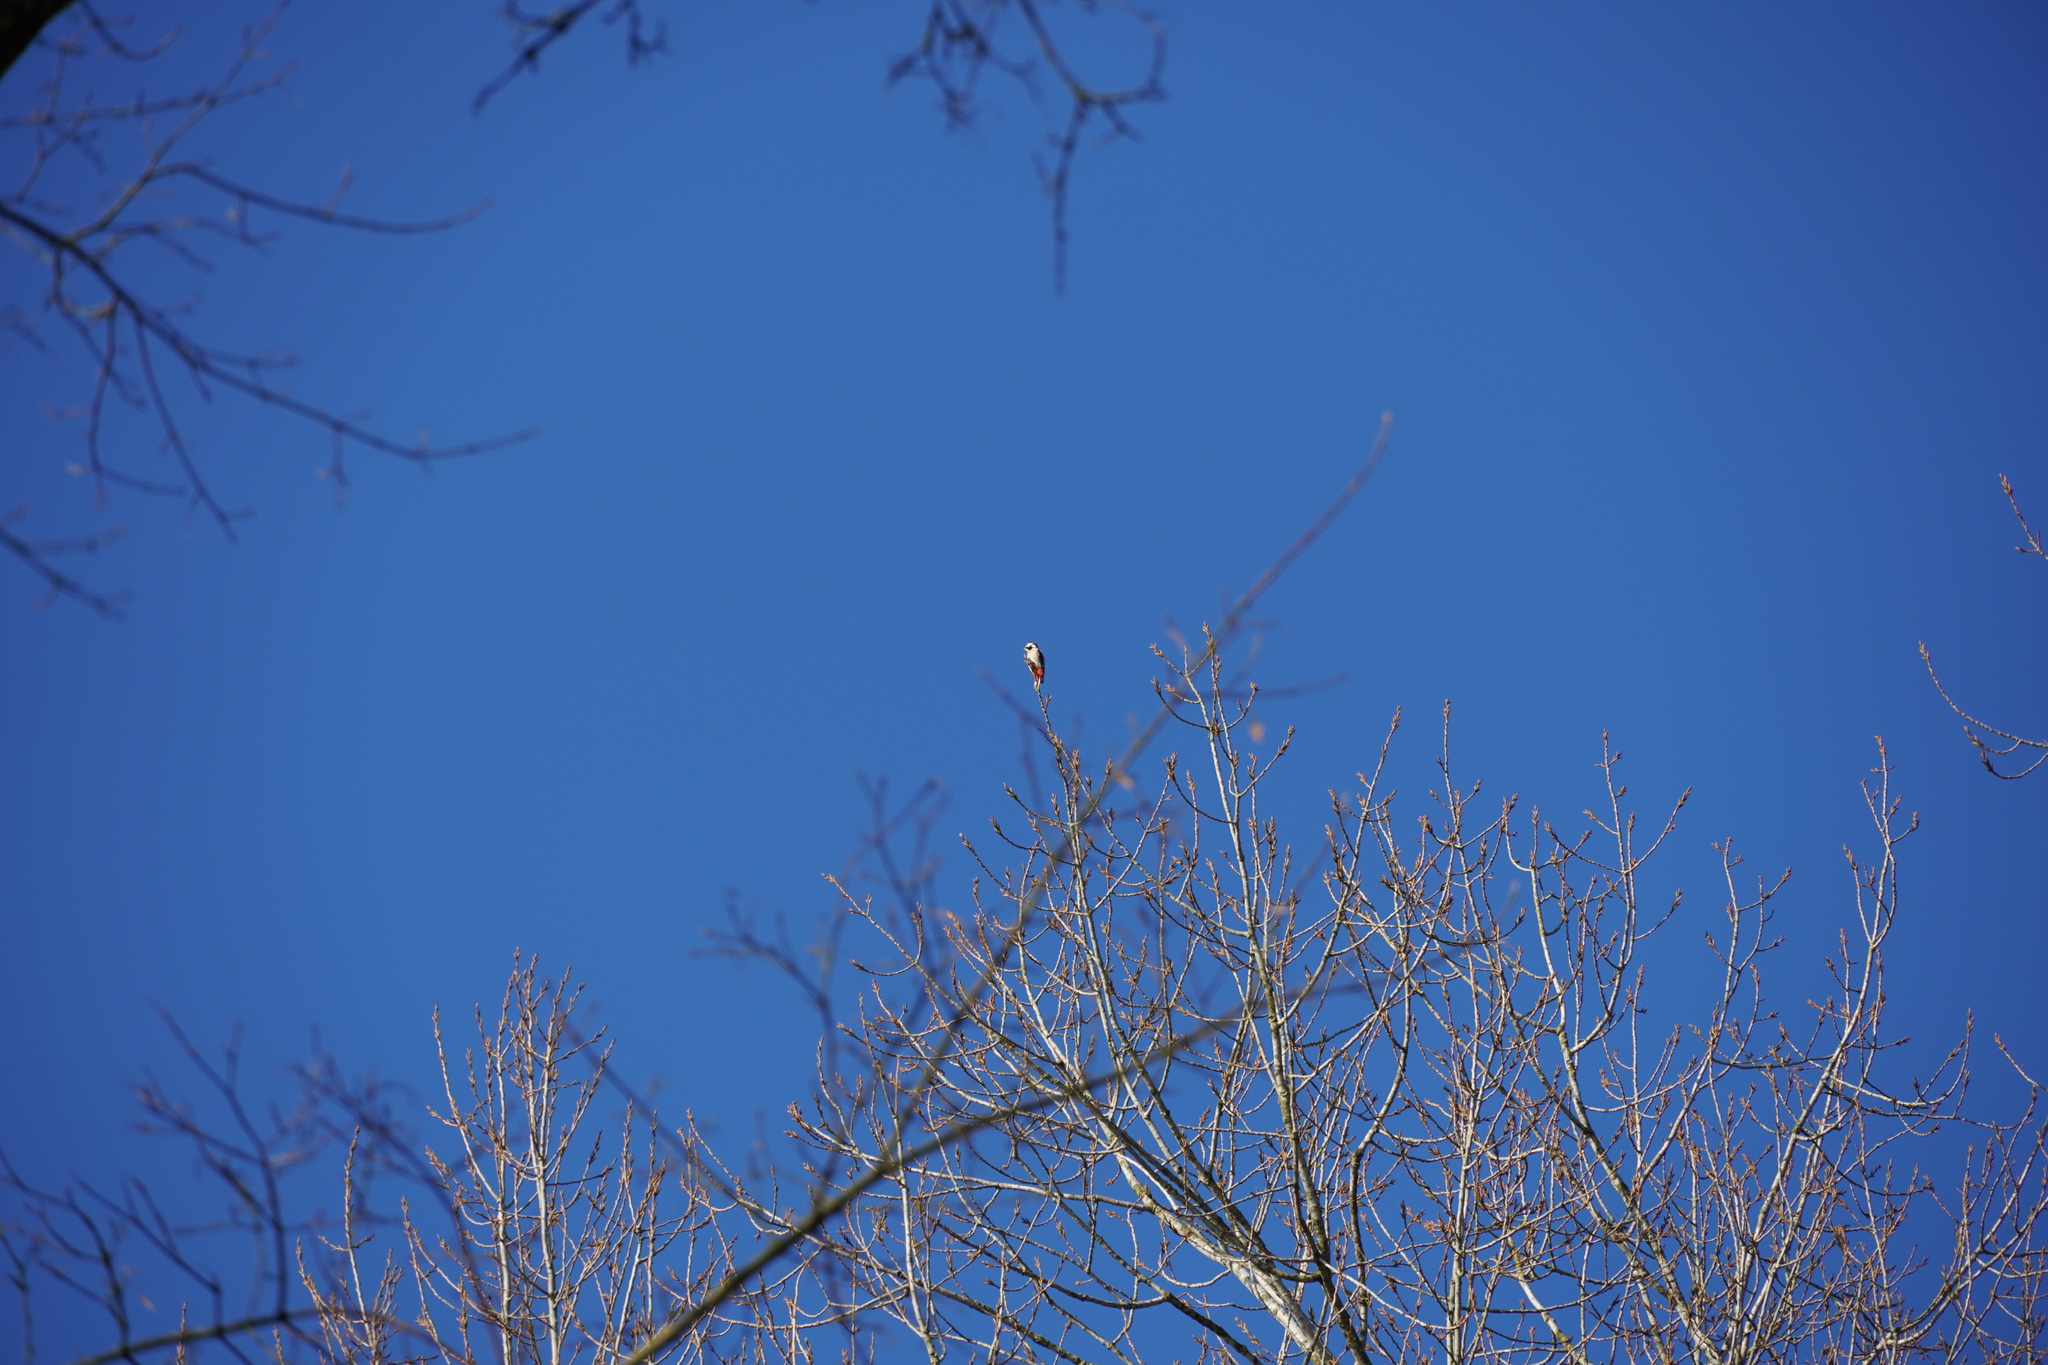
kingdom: Animalia
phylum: Chordata
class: Aves
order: Piciformes
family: Picidae
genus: Dendrocopos
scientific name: Dendrocopos major
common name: Great spotted woodpecker
